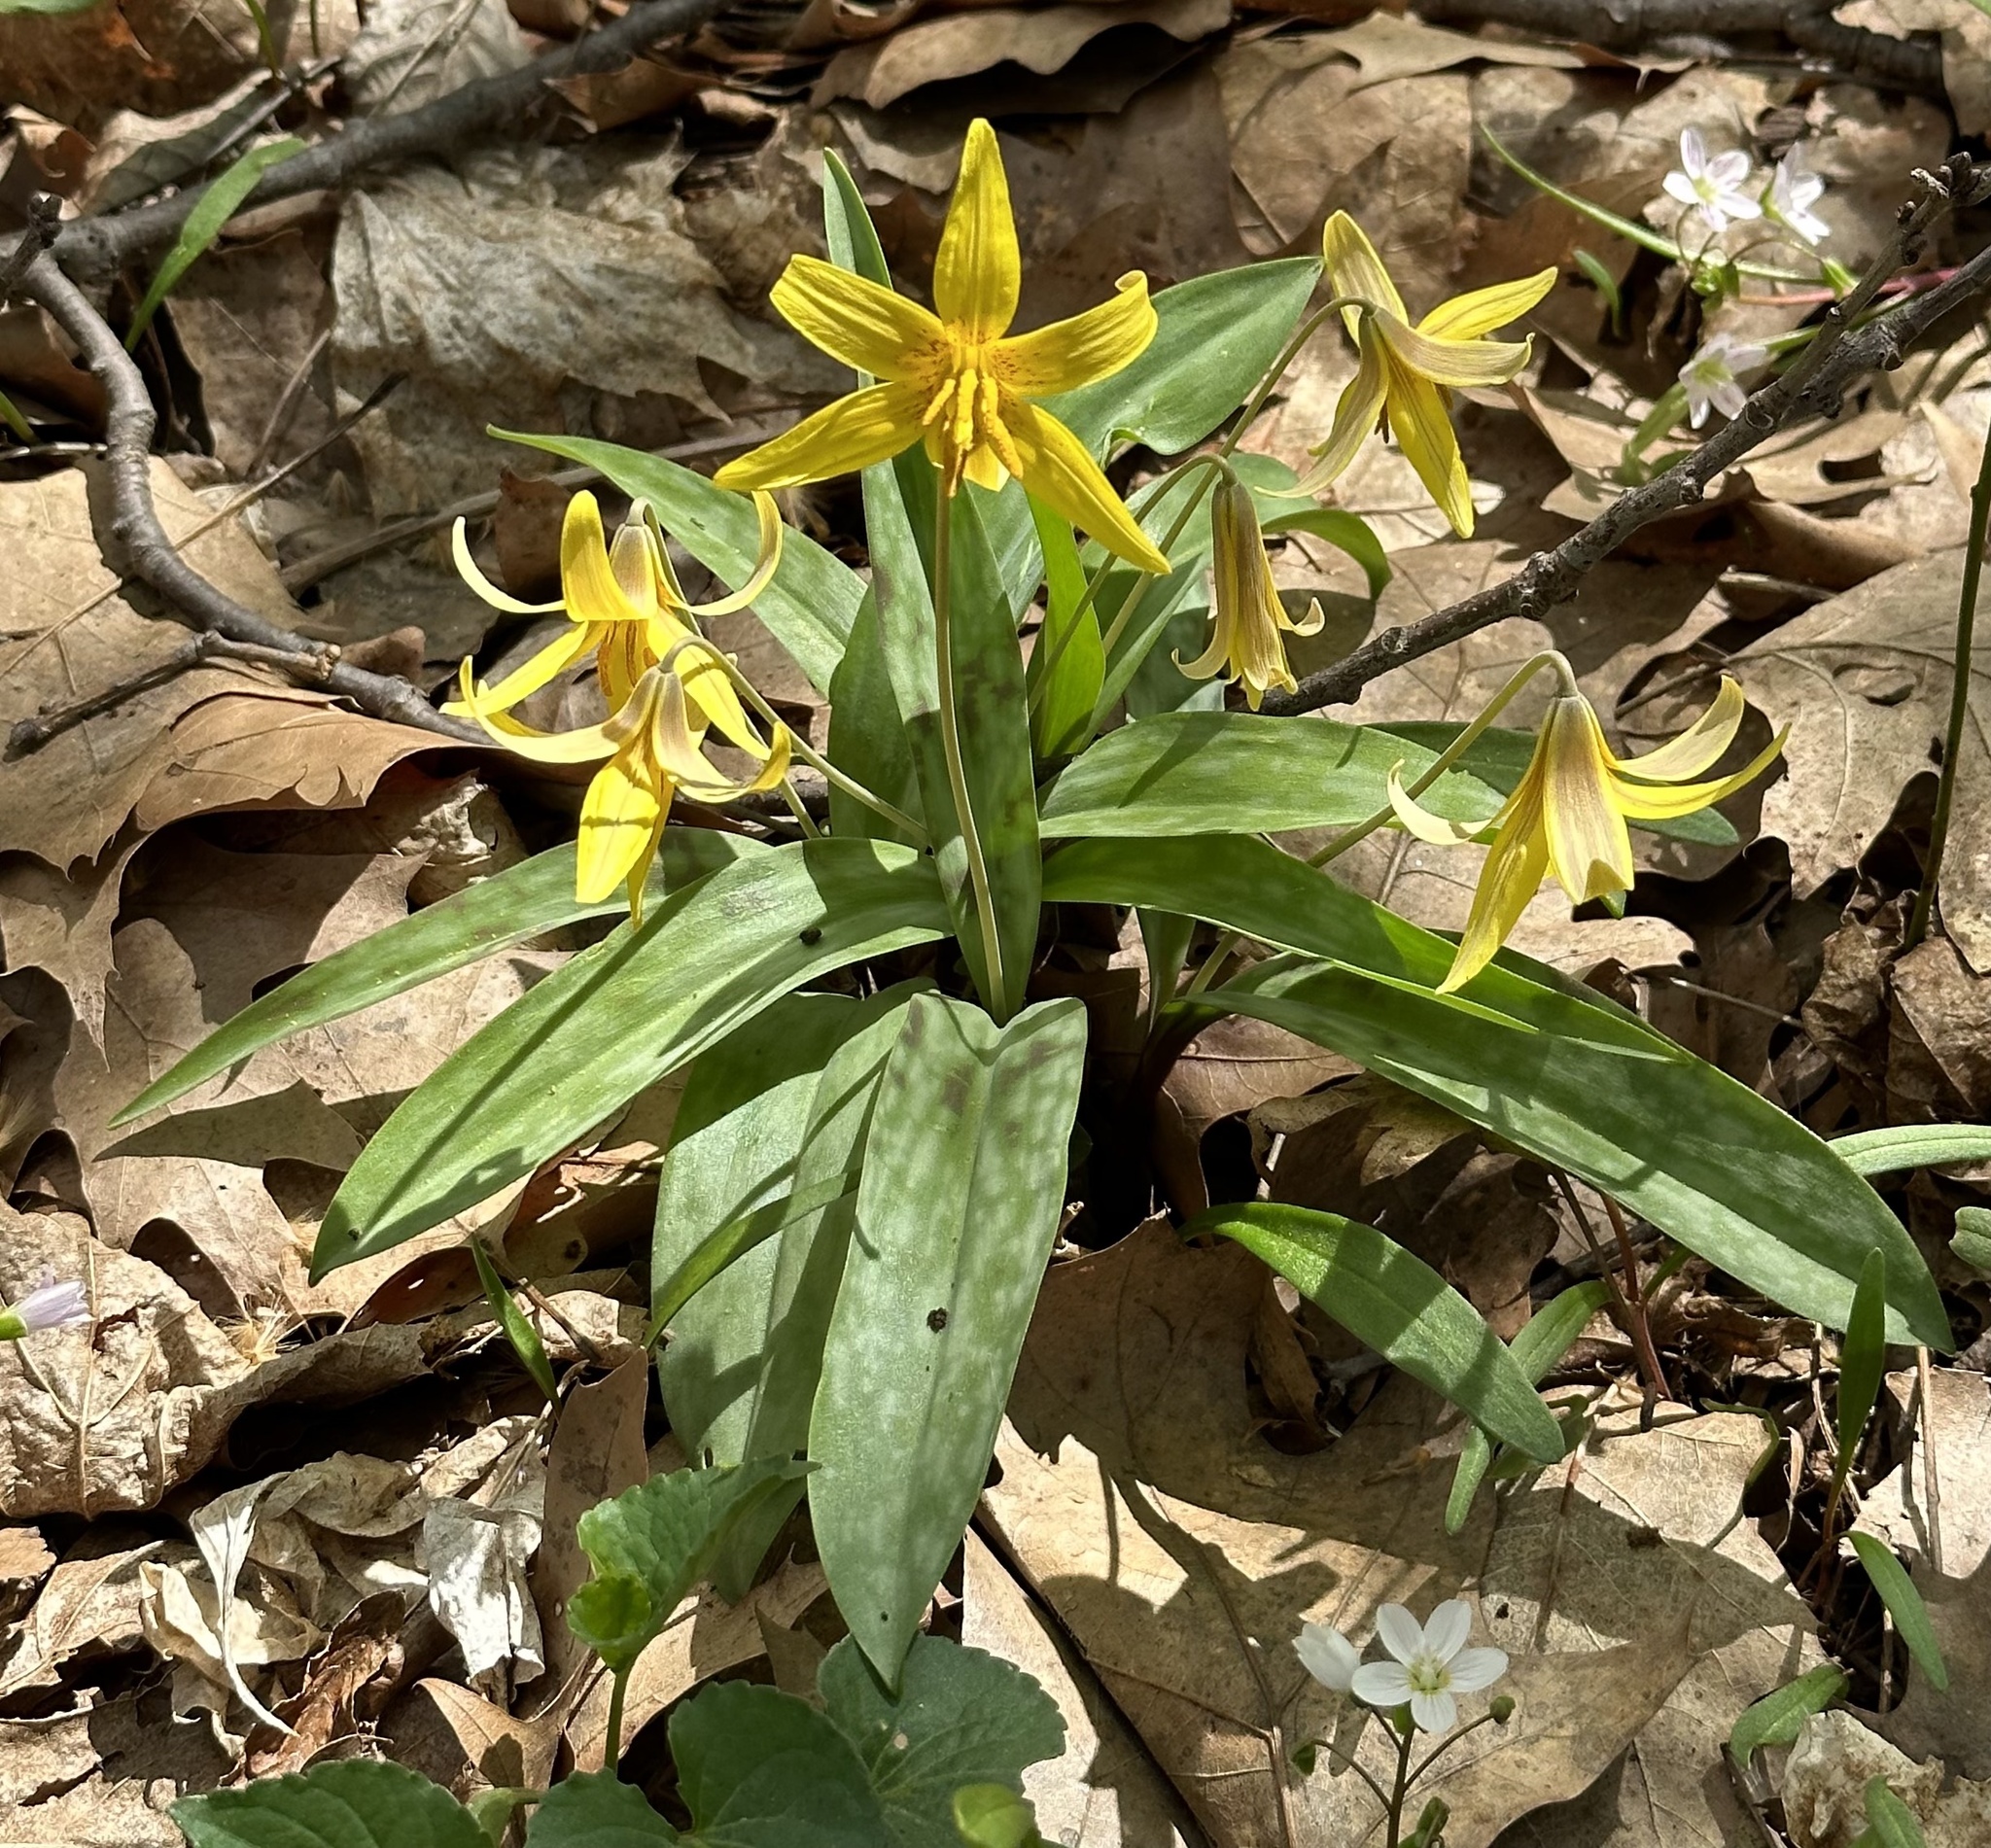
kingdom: Plantae
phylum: Tracheophyta
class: Liliopsida
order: Liliales
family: Liliaceae
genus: Erythronium
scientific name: Erythronium americanum
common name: Yellow adder's-tongue
